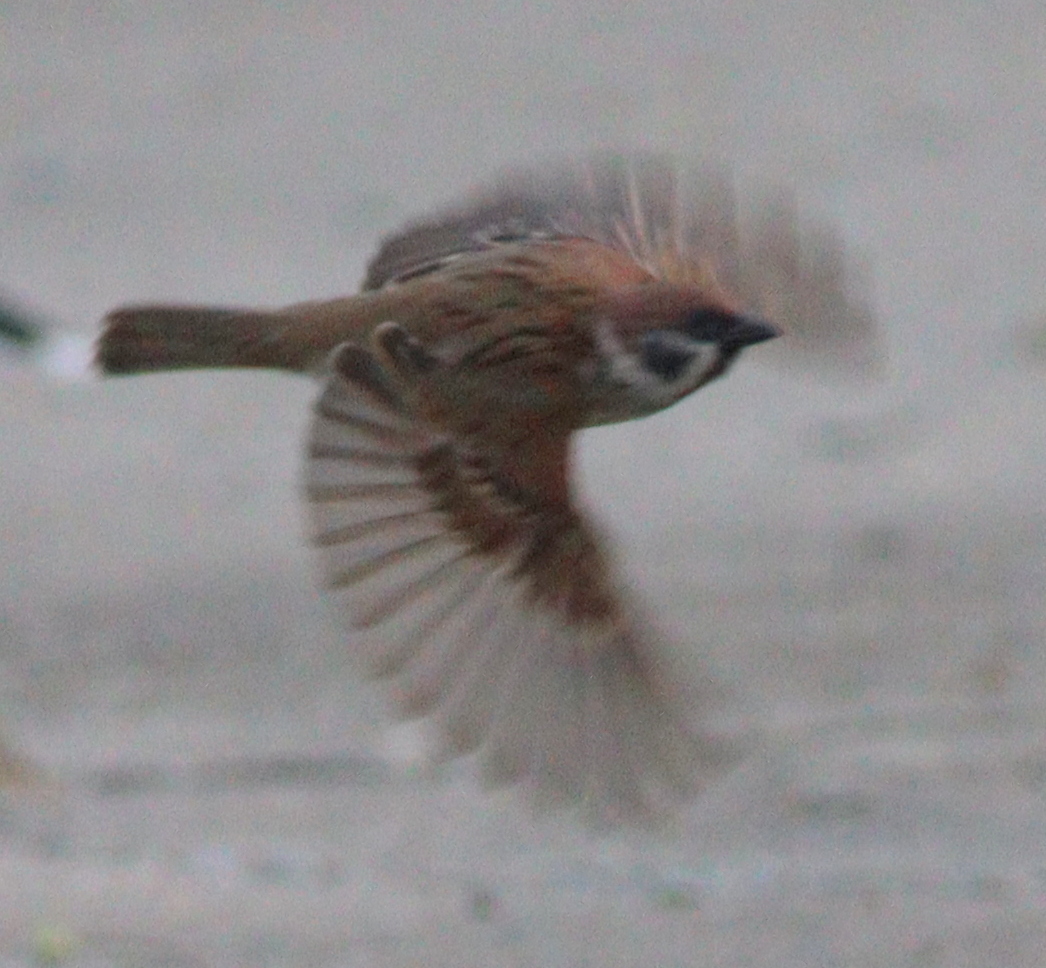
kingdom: Animalia
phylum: Chordata
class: Aves
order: Passeriformes
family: Passeridae
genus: Passer
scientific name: Passer montanus
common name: Eurasian tree sparrow
